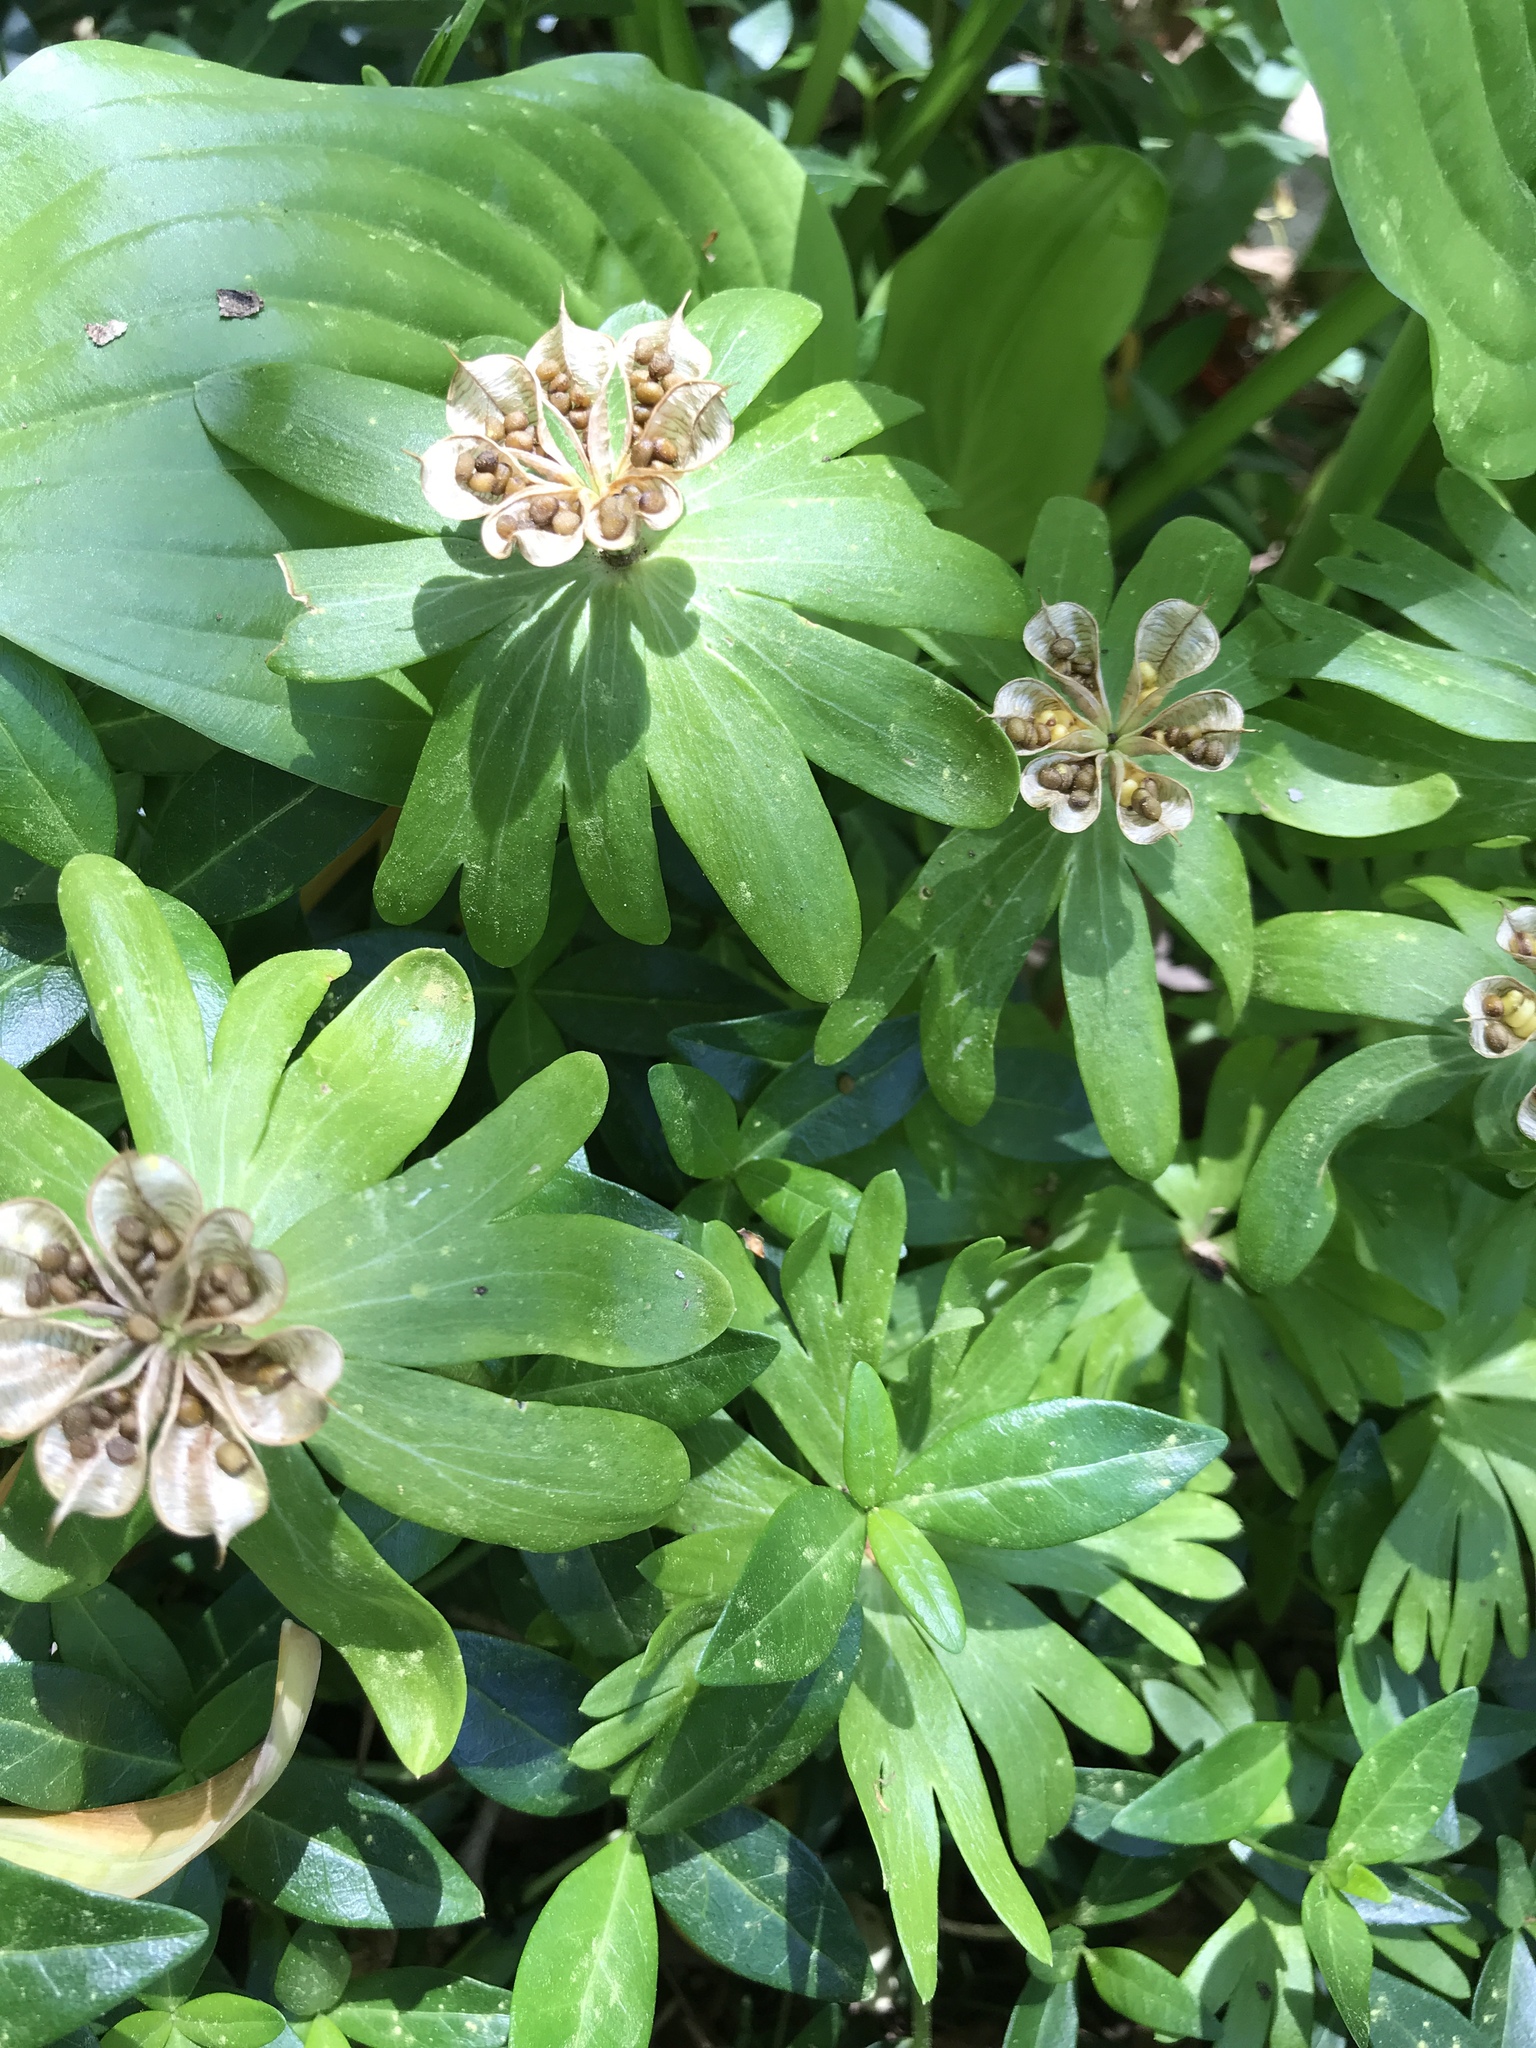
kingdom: Plantae
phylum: Tracheophyta
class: Magnoliopsida
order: Ranunculales
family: Ranunculaceae
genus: Eranthis
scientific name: Eranthis hyemalis
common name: Winter aconite
